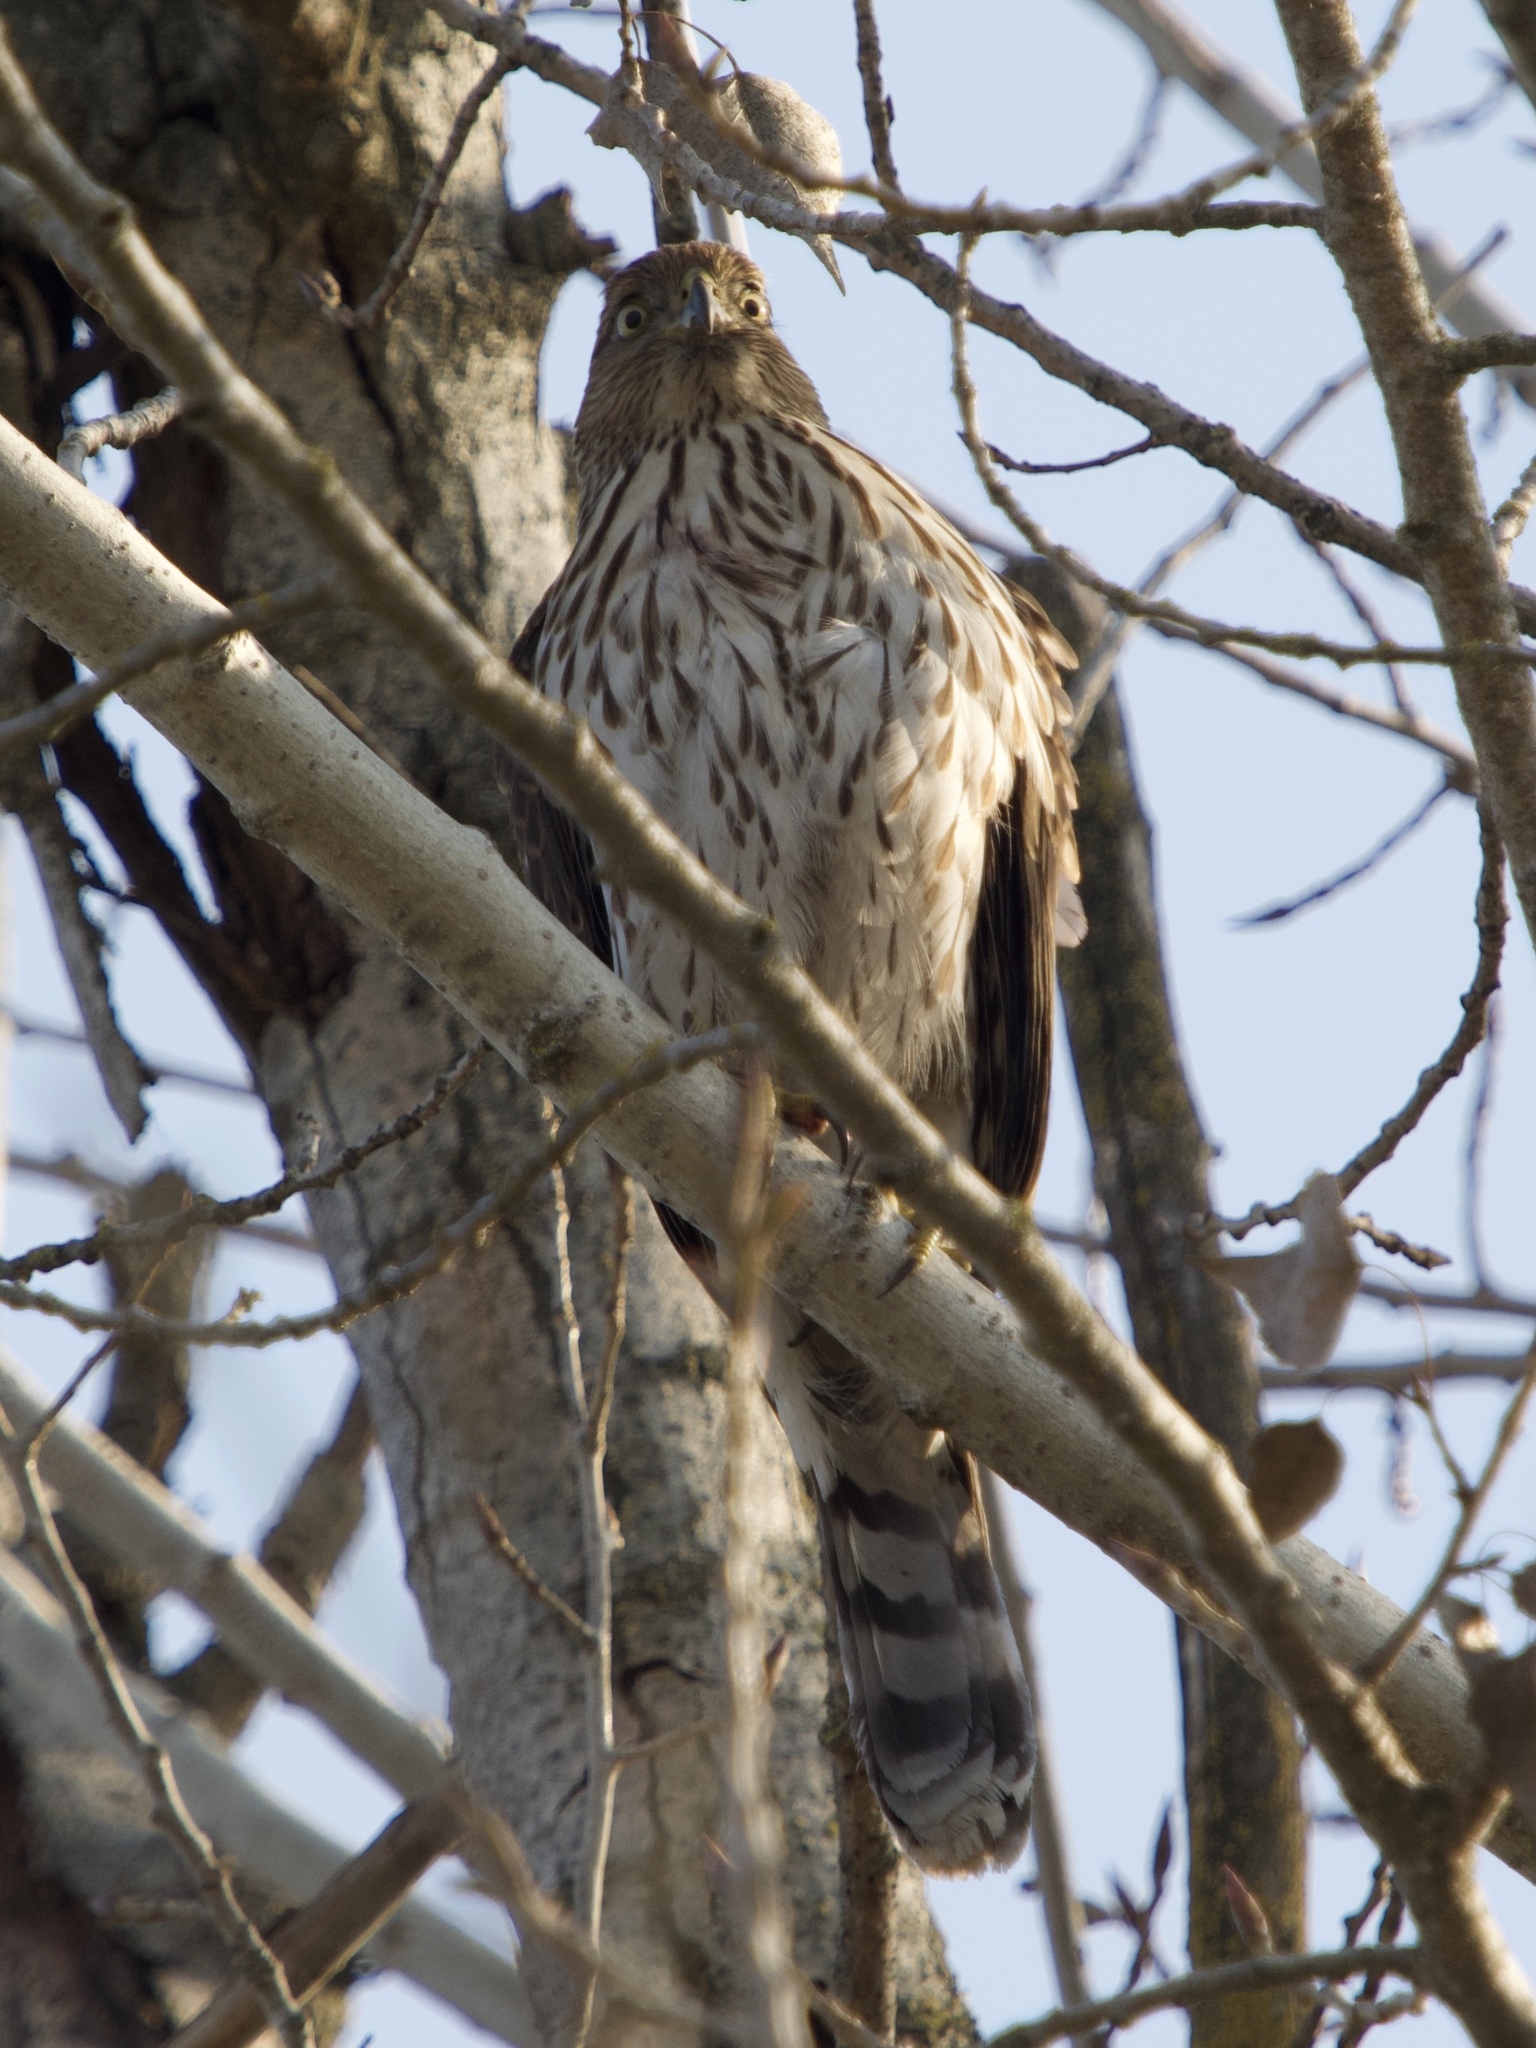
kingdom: Animalia
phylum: Chordata
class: Aves
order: Accipitriformes
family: Accipitridae
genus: Accipiter
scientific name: Accipiter cooperii
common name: Cooper's hawk
